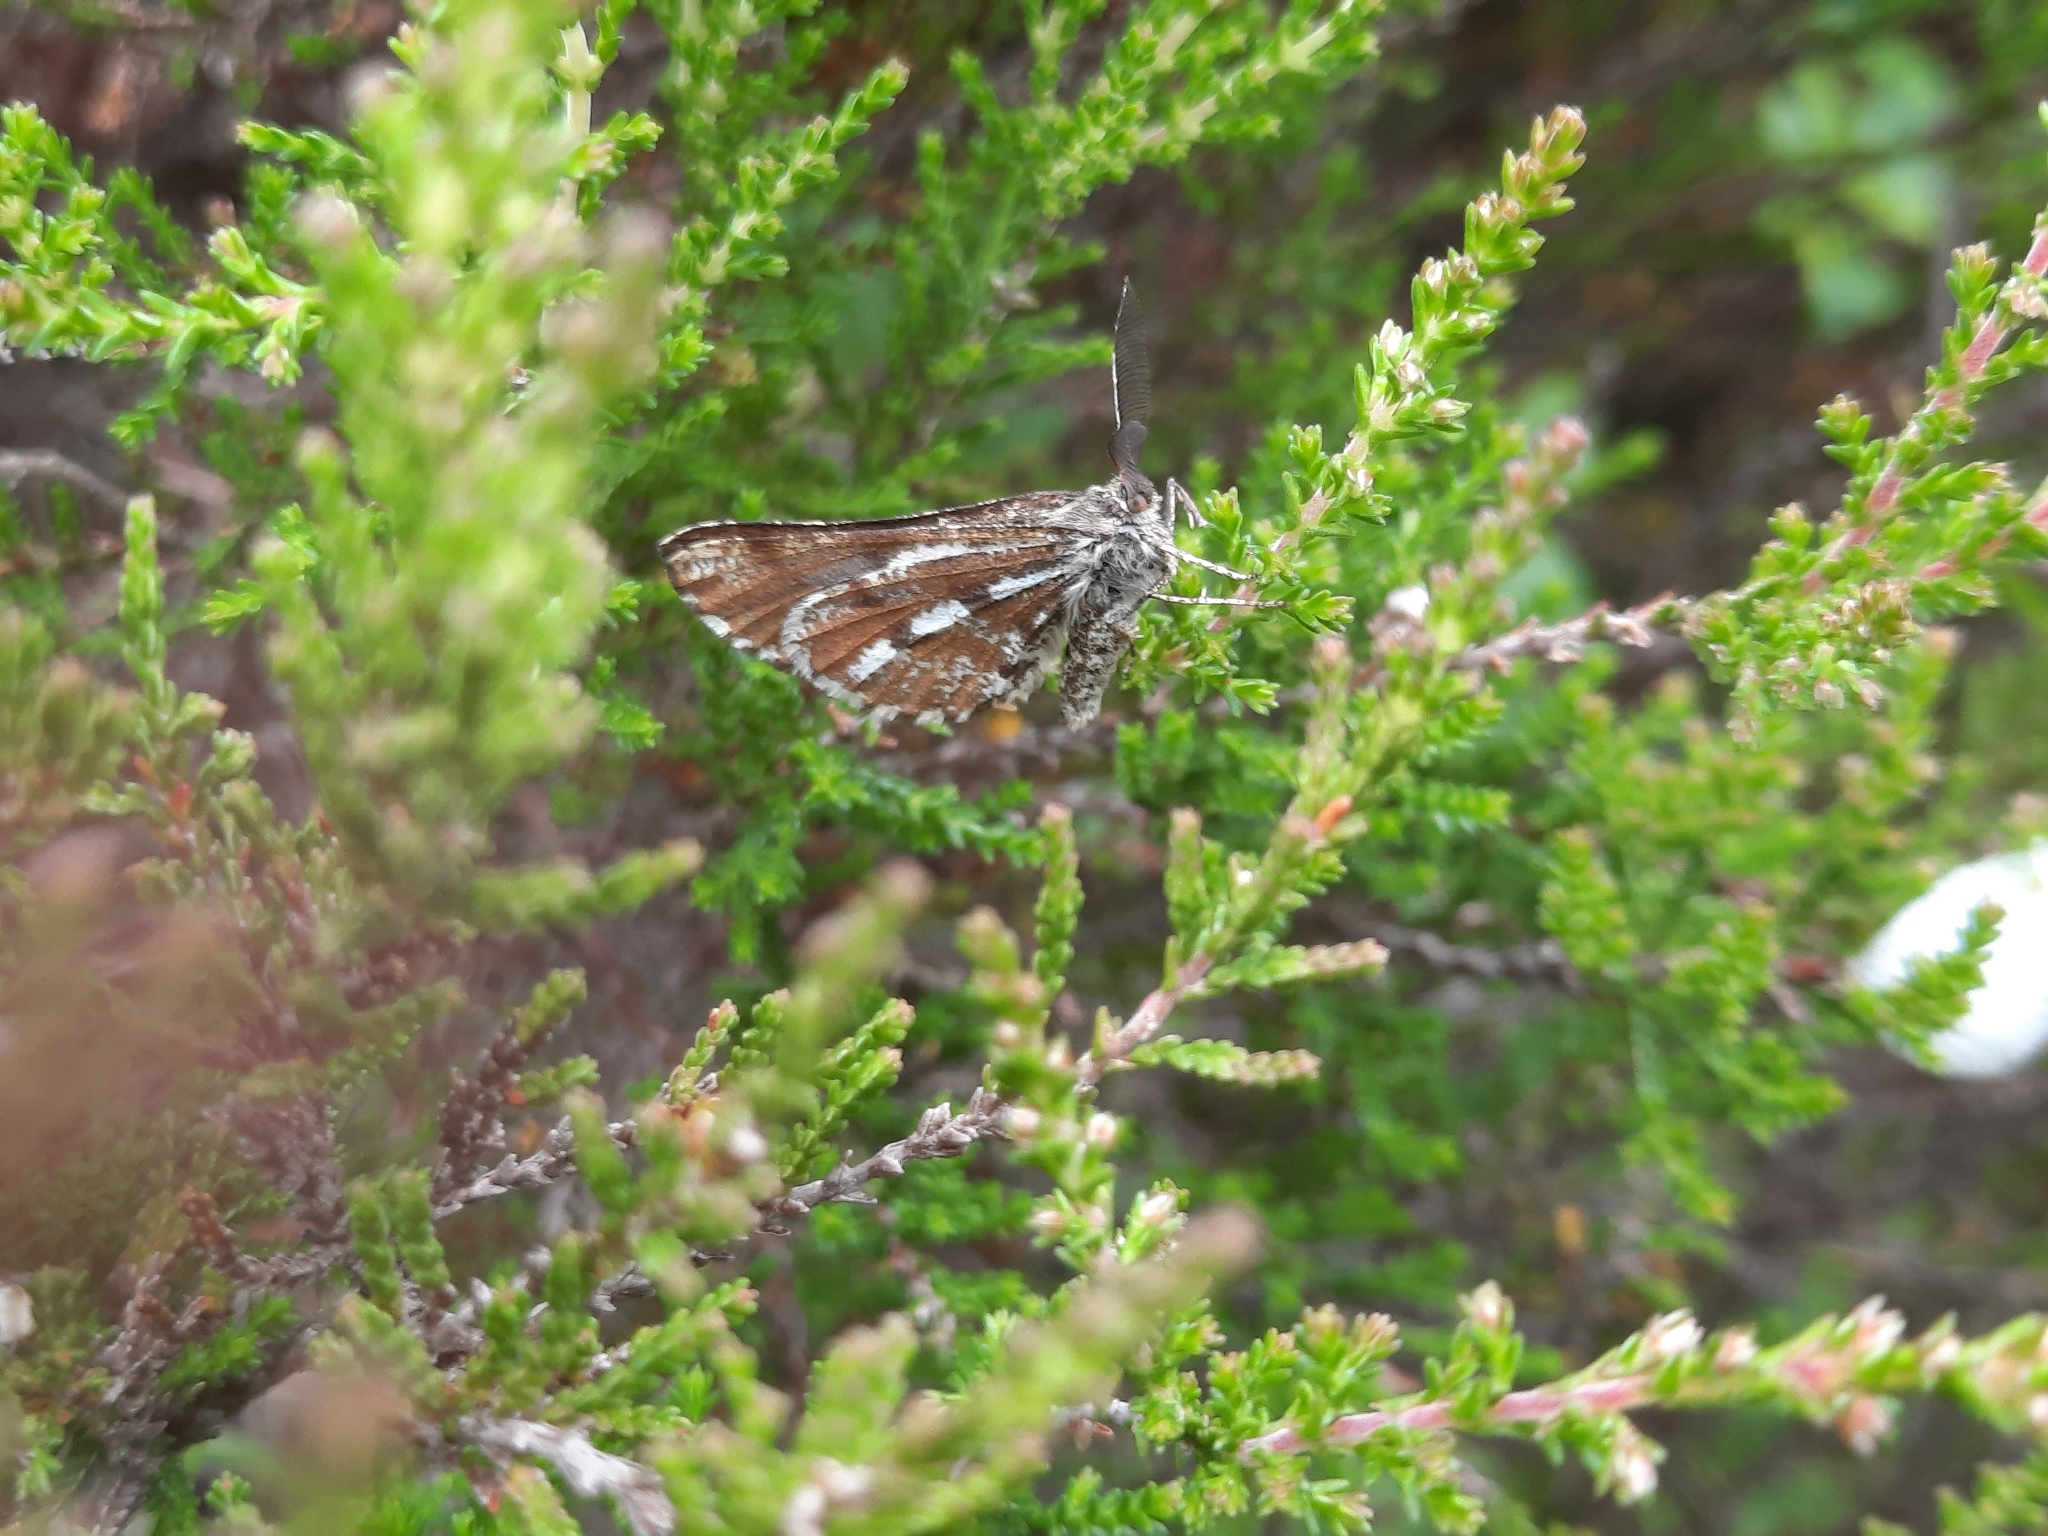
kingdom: Animalia
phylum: Arthropoda
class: Insecta
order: Lepidoptera
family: Geometridae
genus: Bupalus
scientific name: Bupalus piniaria
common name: Bordered white
